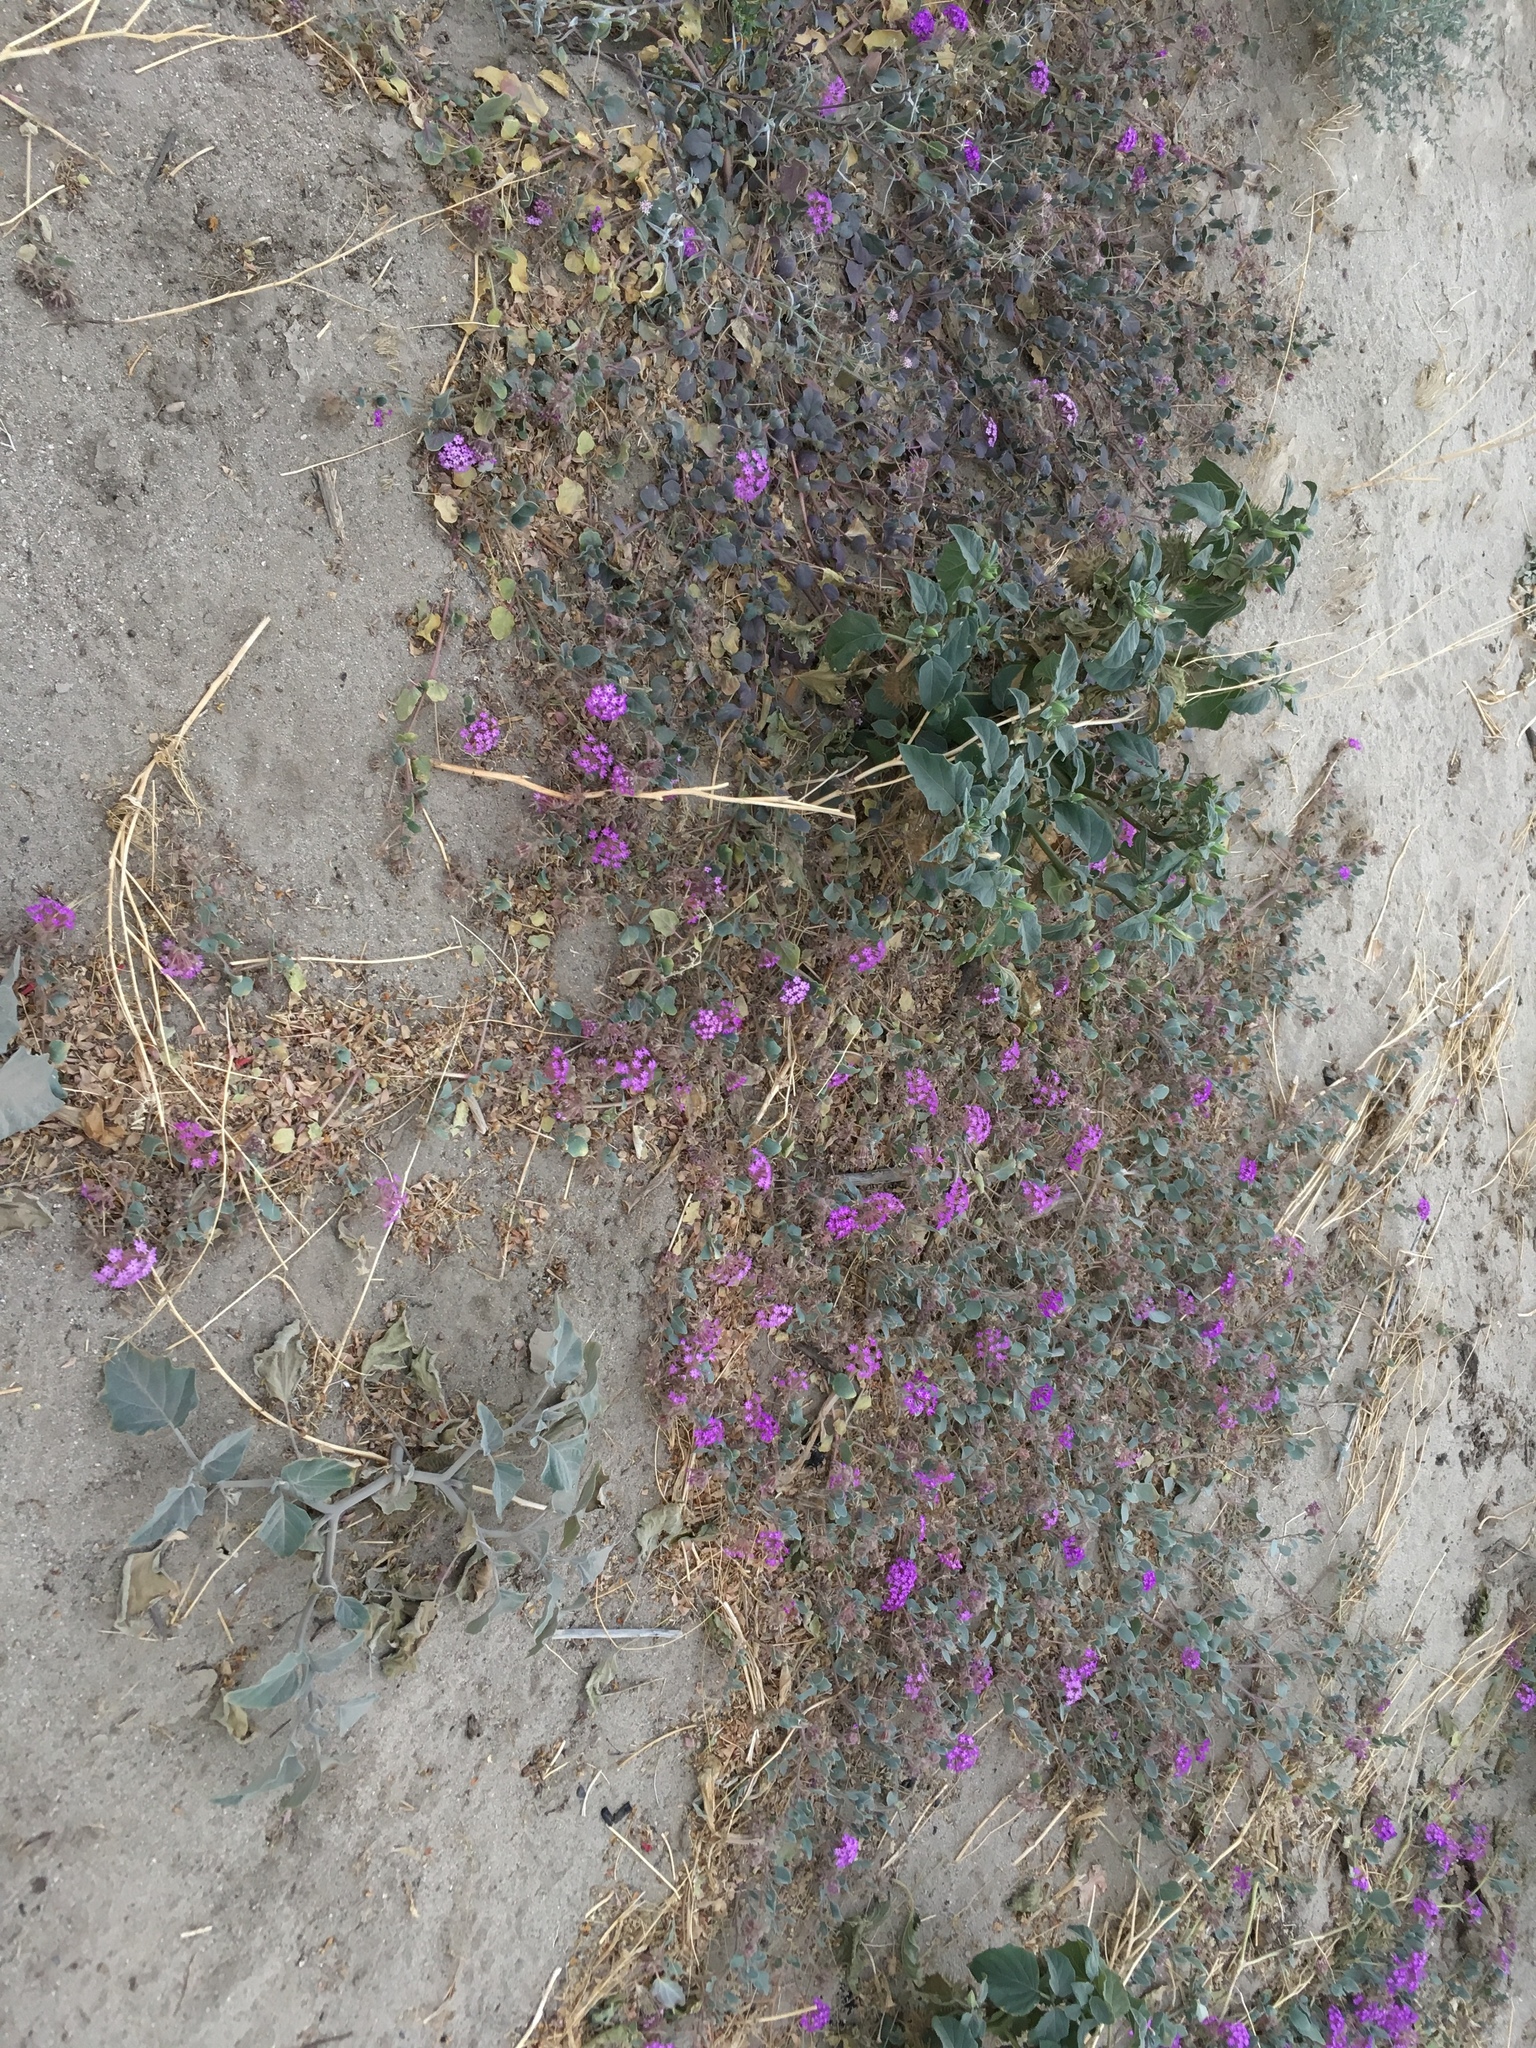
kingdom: Plantae
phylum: Tracheophyta
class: Magnoliopsida
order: Caryophyllales
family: Nyctaginaceae
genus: Abronia
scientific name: Abronia villosa
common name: Desert sand-verbena
